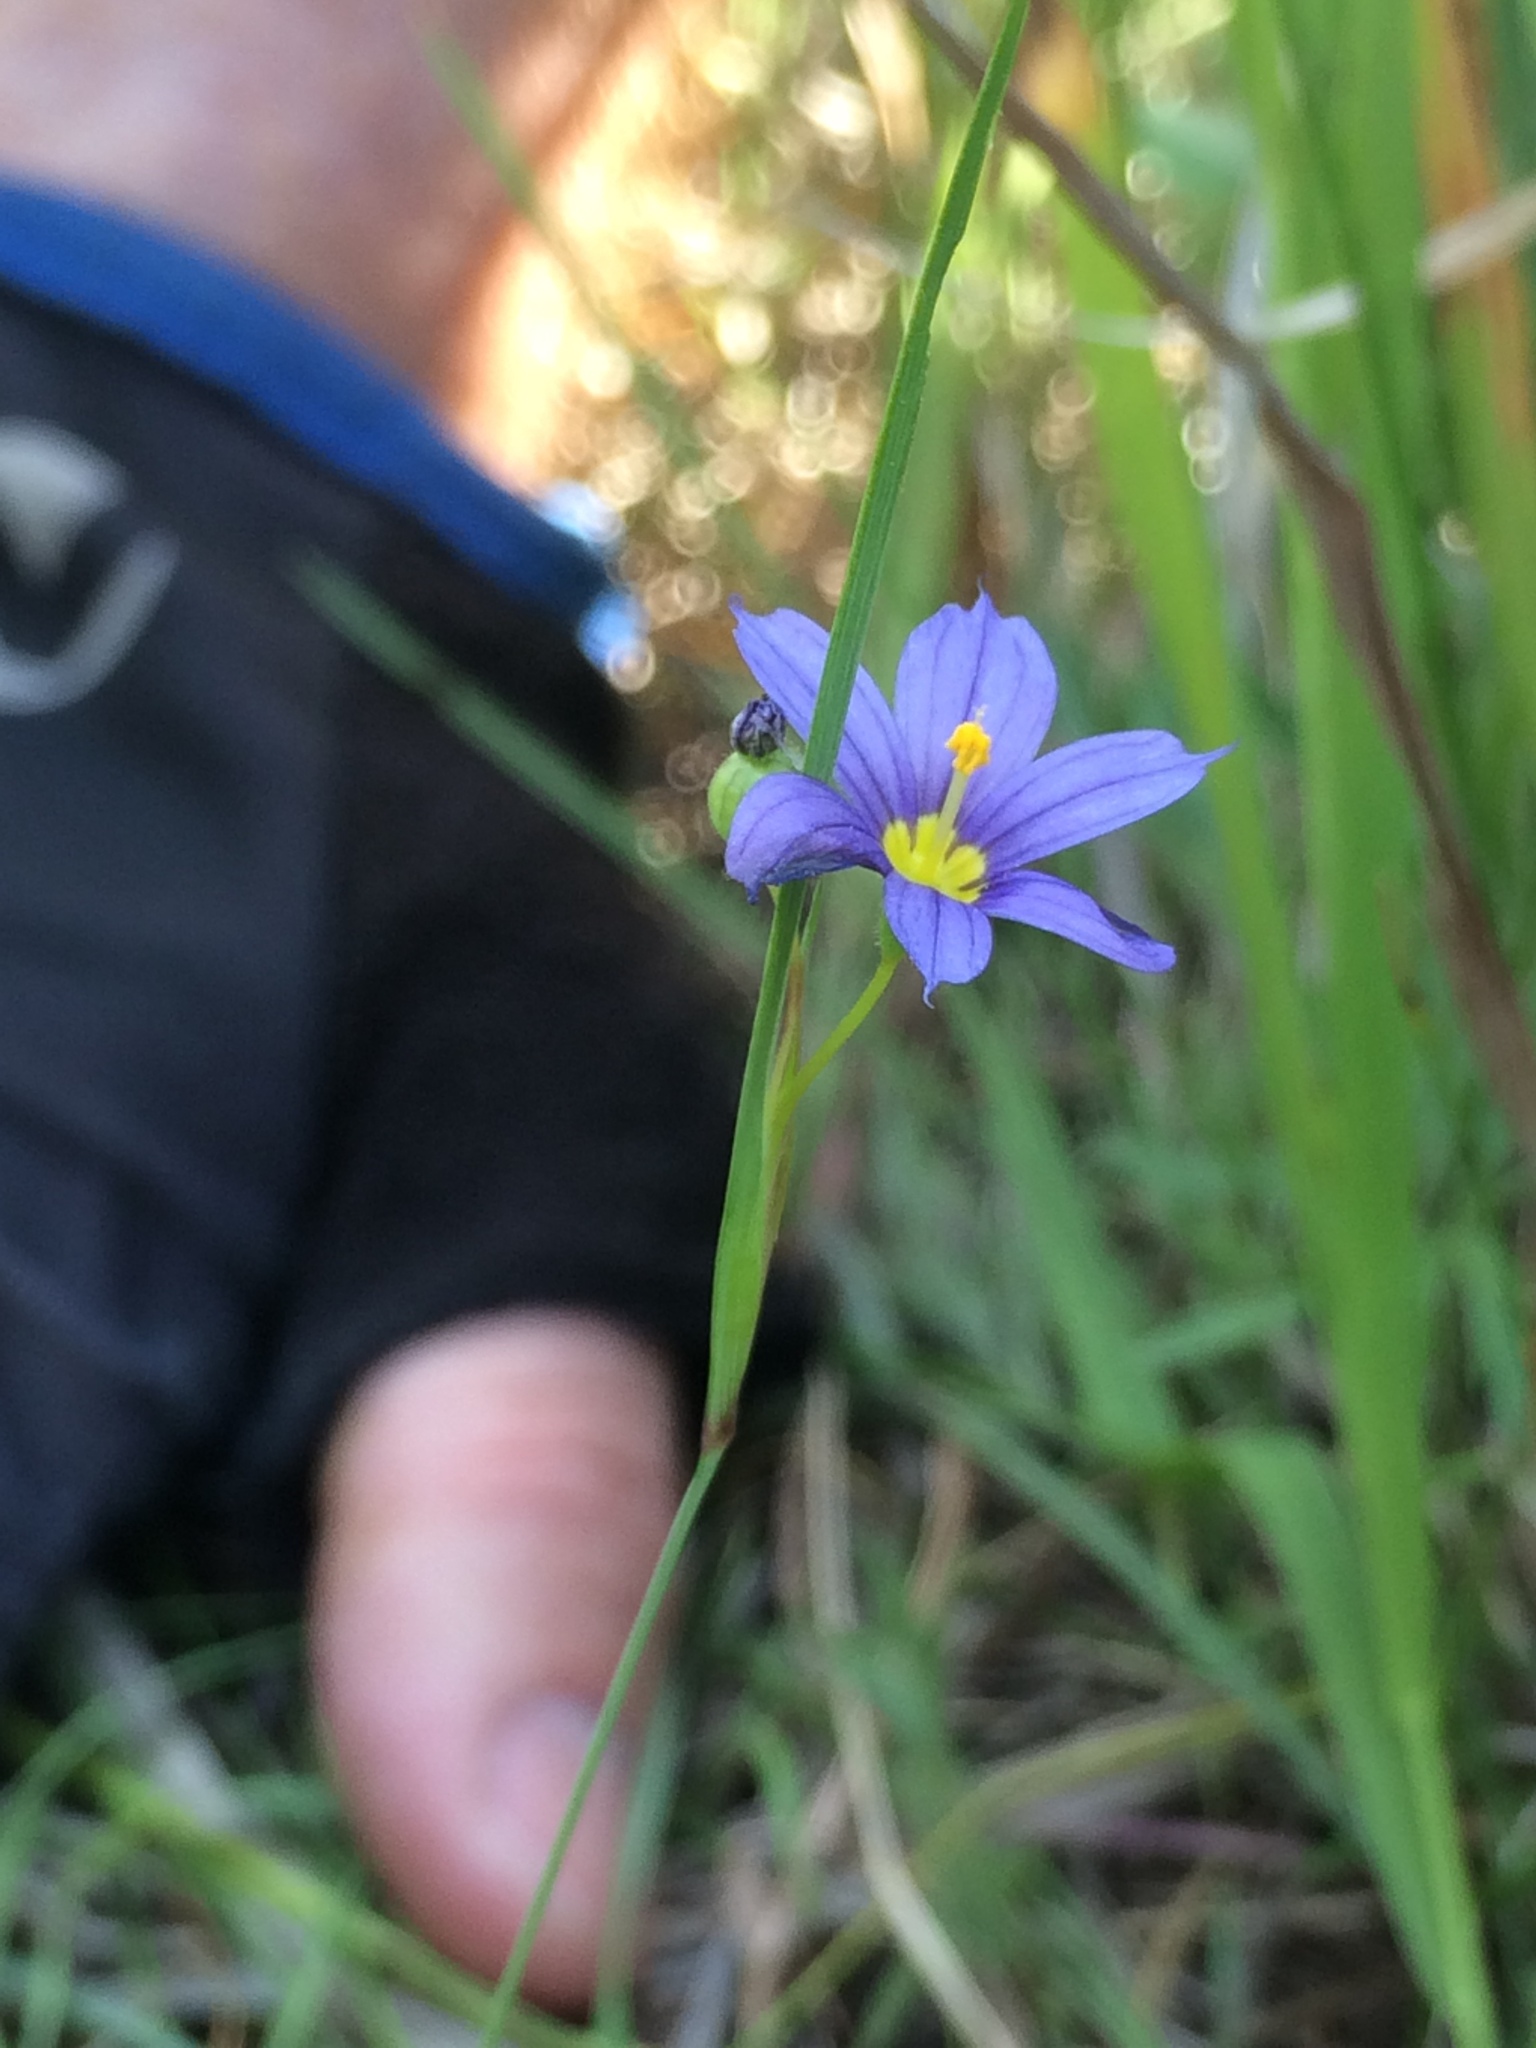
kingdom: Plantae
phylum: Tracheophyta
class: Liliopsida
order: Asparagales
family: Iridaceae
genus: Sisyrinchium
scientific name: Sisyrinchium montanum
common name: American blue-eyed-grass
